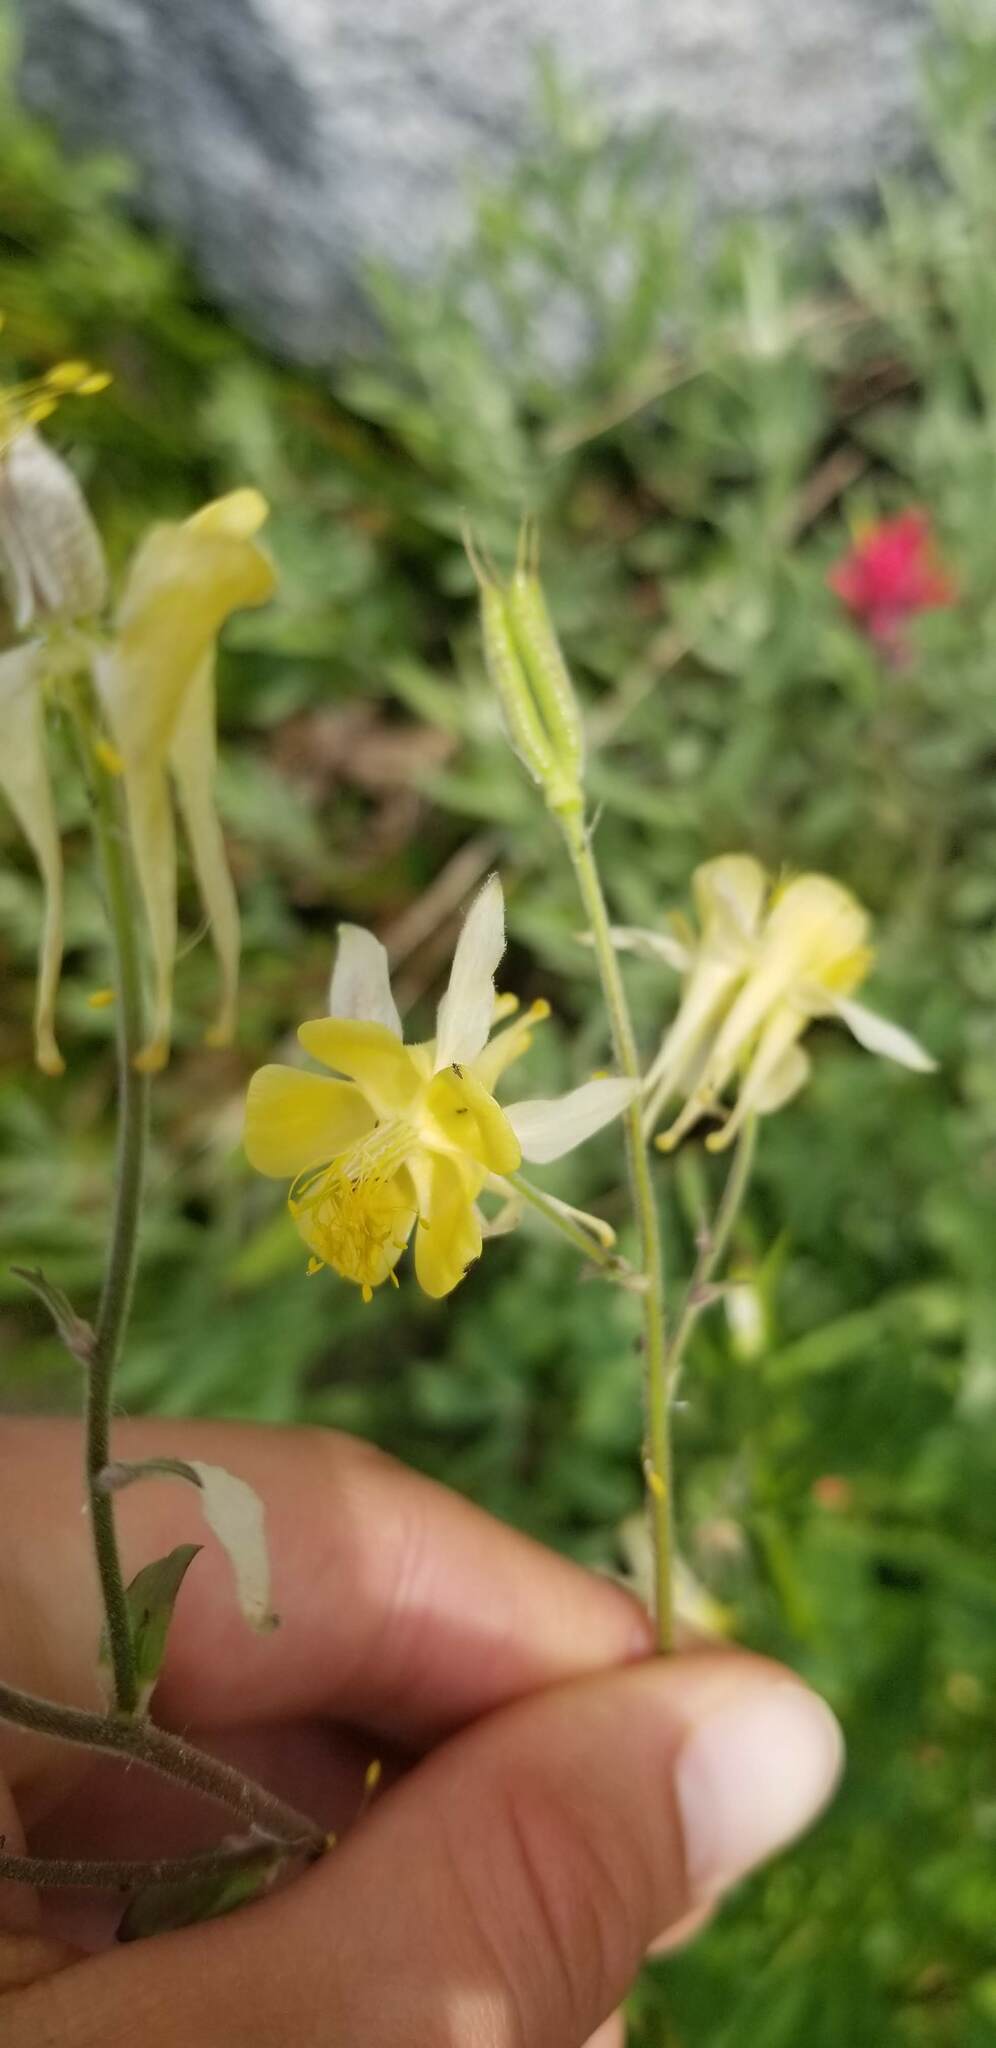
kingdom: Plantae
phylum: Tracheophyta
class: Magnoliopsida
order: Ranunculales
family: Ranunculaceae
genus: Aquilegia
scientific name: Aquilegia flavescens
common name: Yellow columbine
